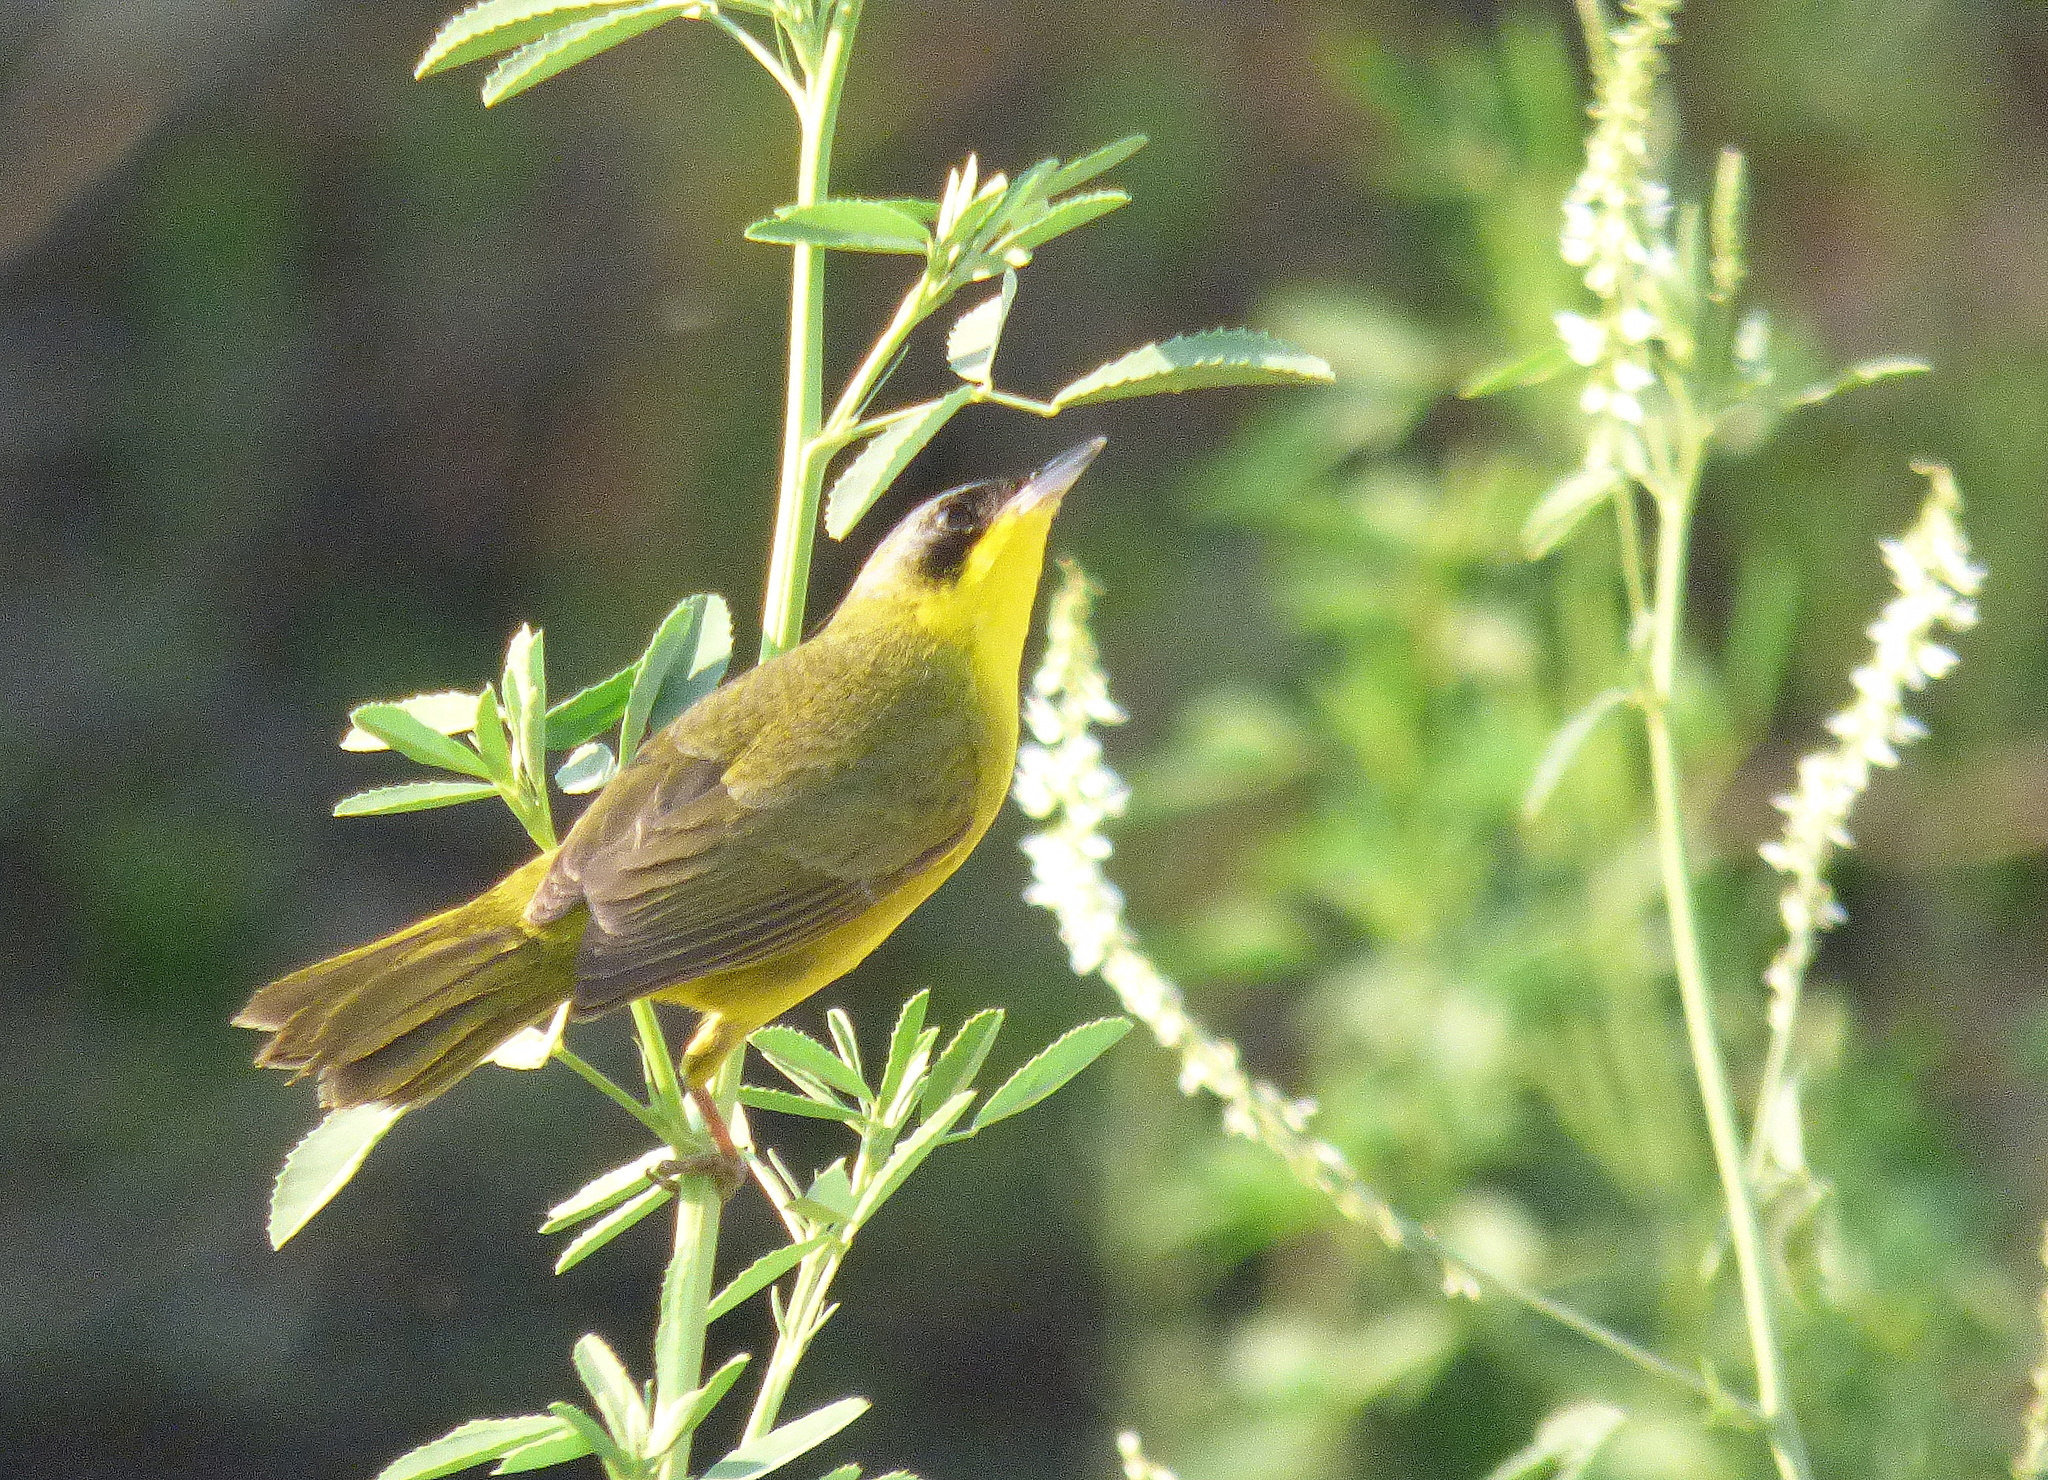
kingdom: Animalia
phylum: Chordata
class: Aves
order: Passeriformes
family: Parulidae
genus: Geothlypis
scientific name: Geothlypis velata
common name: Southern yellowthroat
